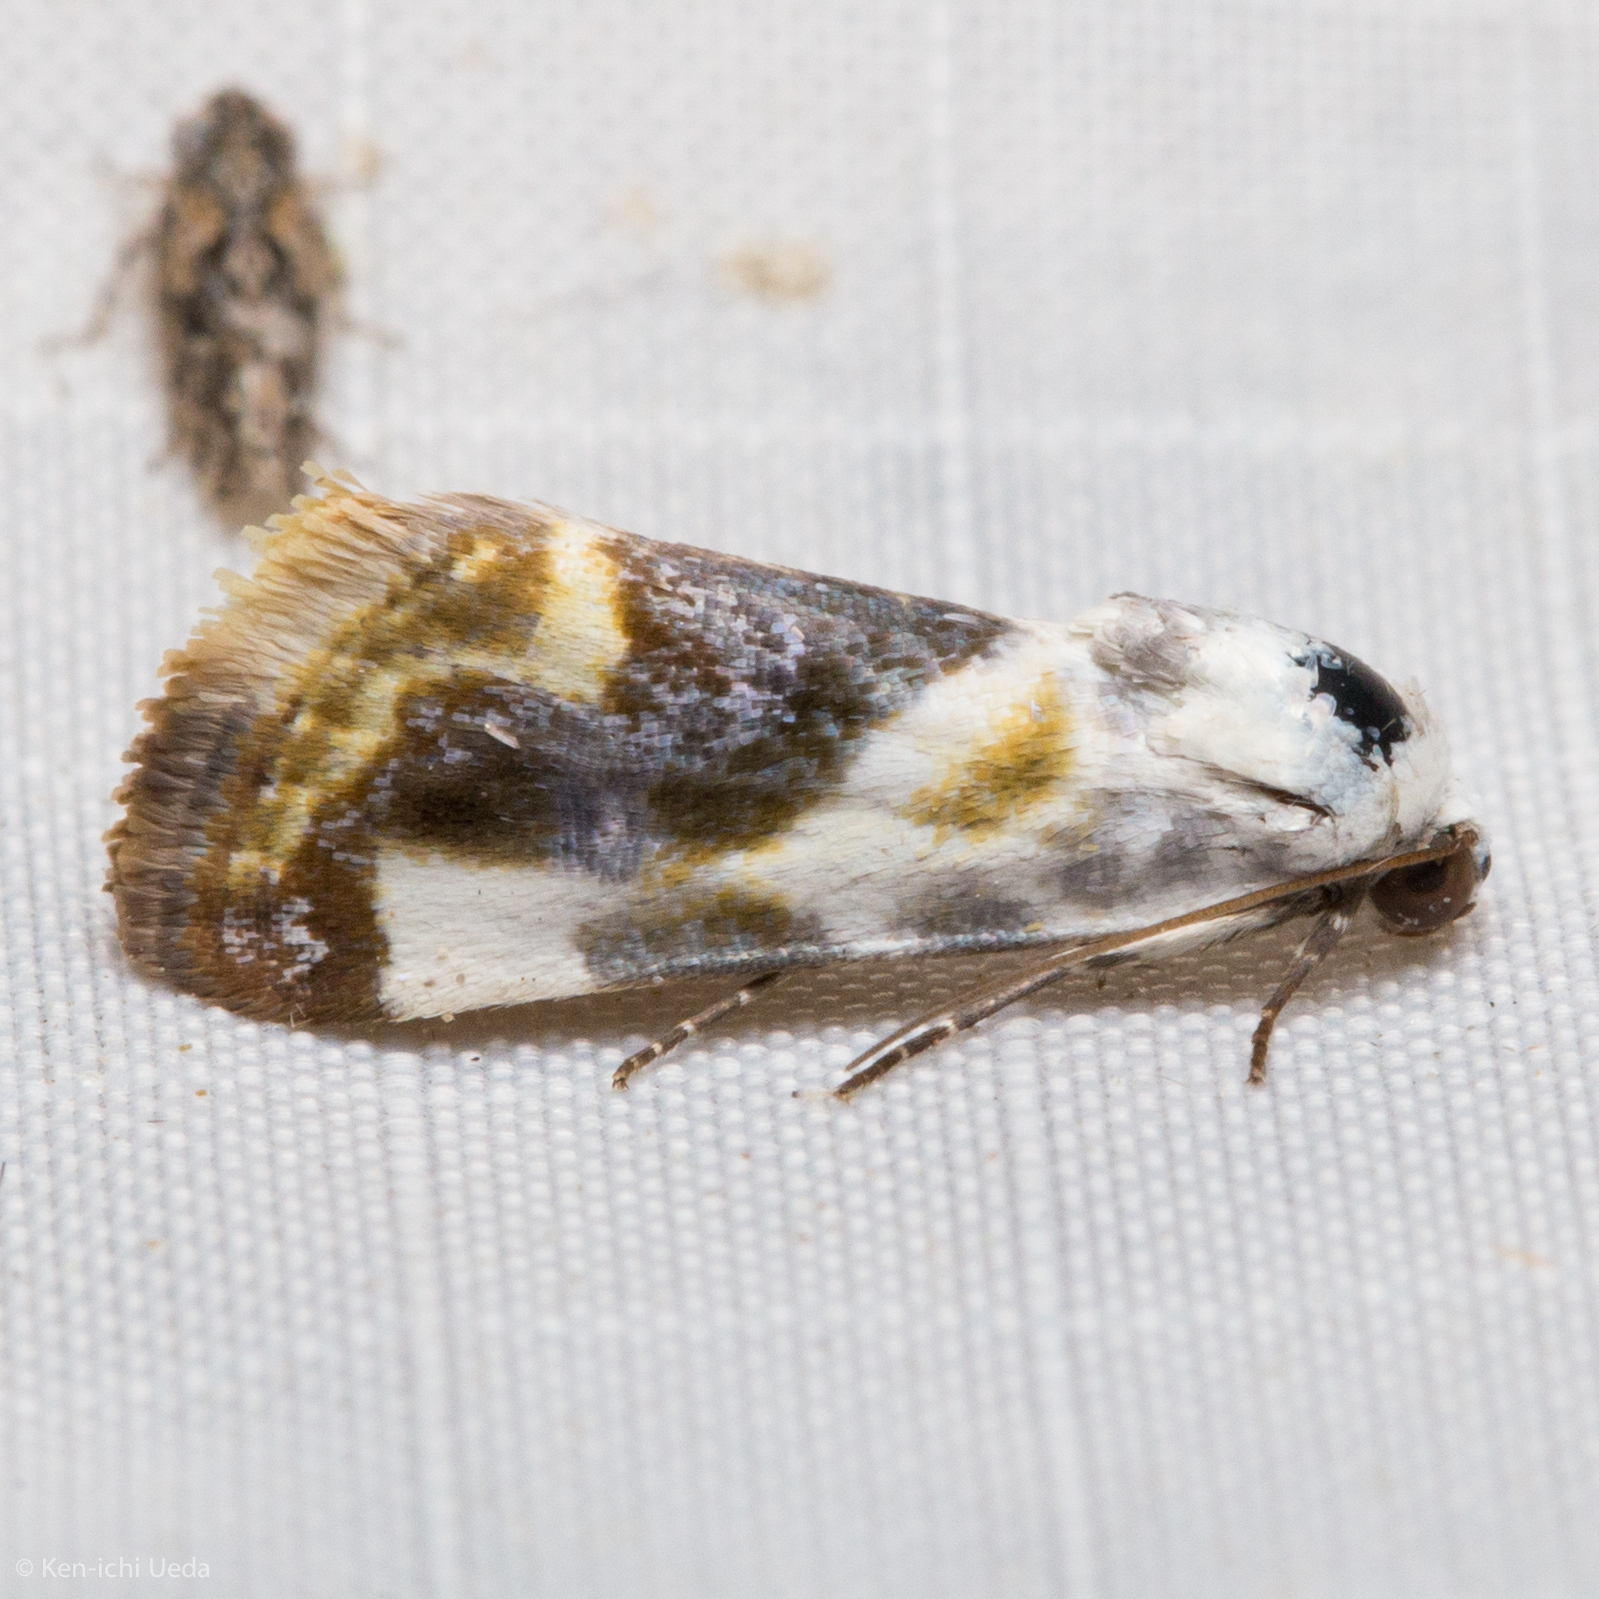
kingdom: Animalia
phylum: Arthropoda
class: Insecta
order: Lepidoptera
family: Noctuidae
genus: Acontia
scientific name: Acontia arida
